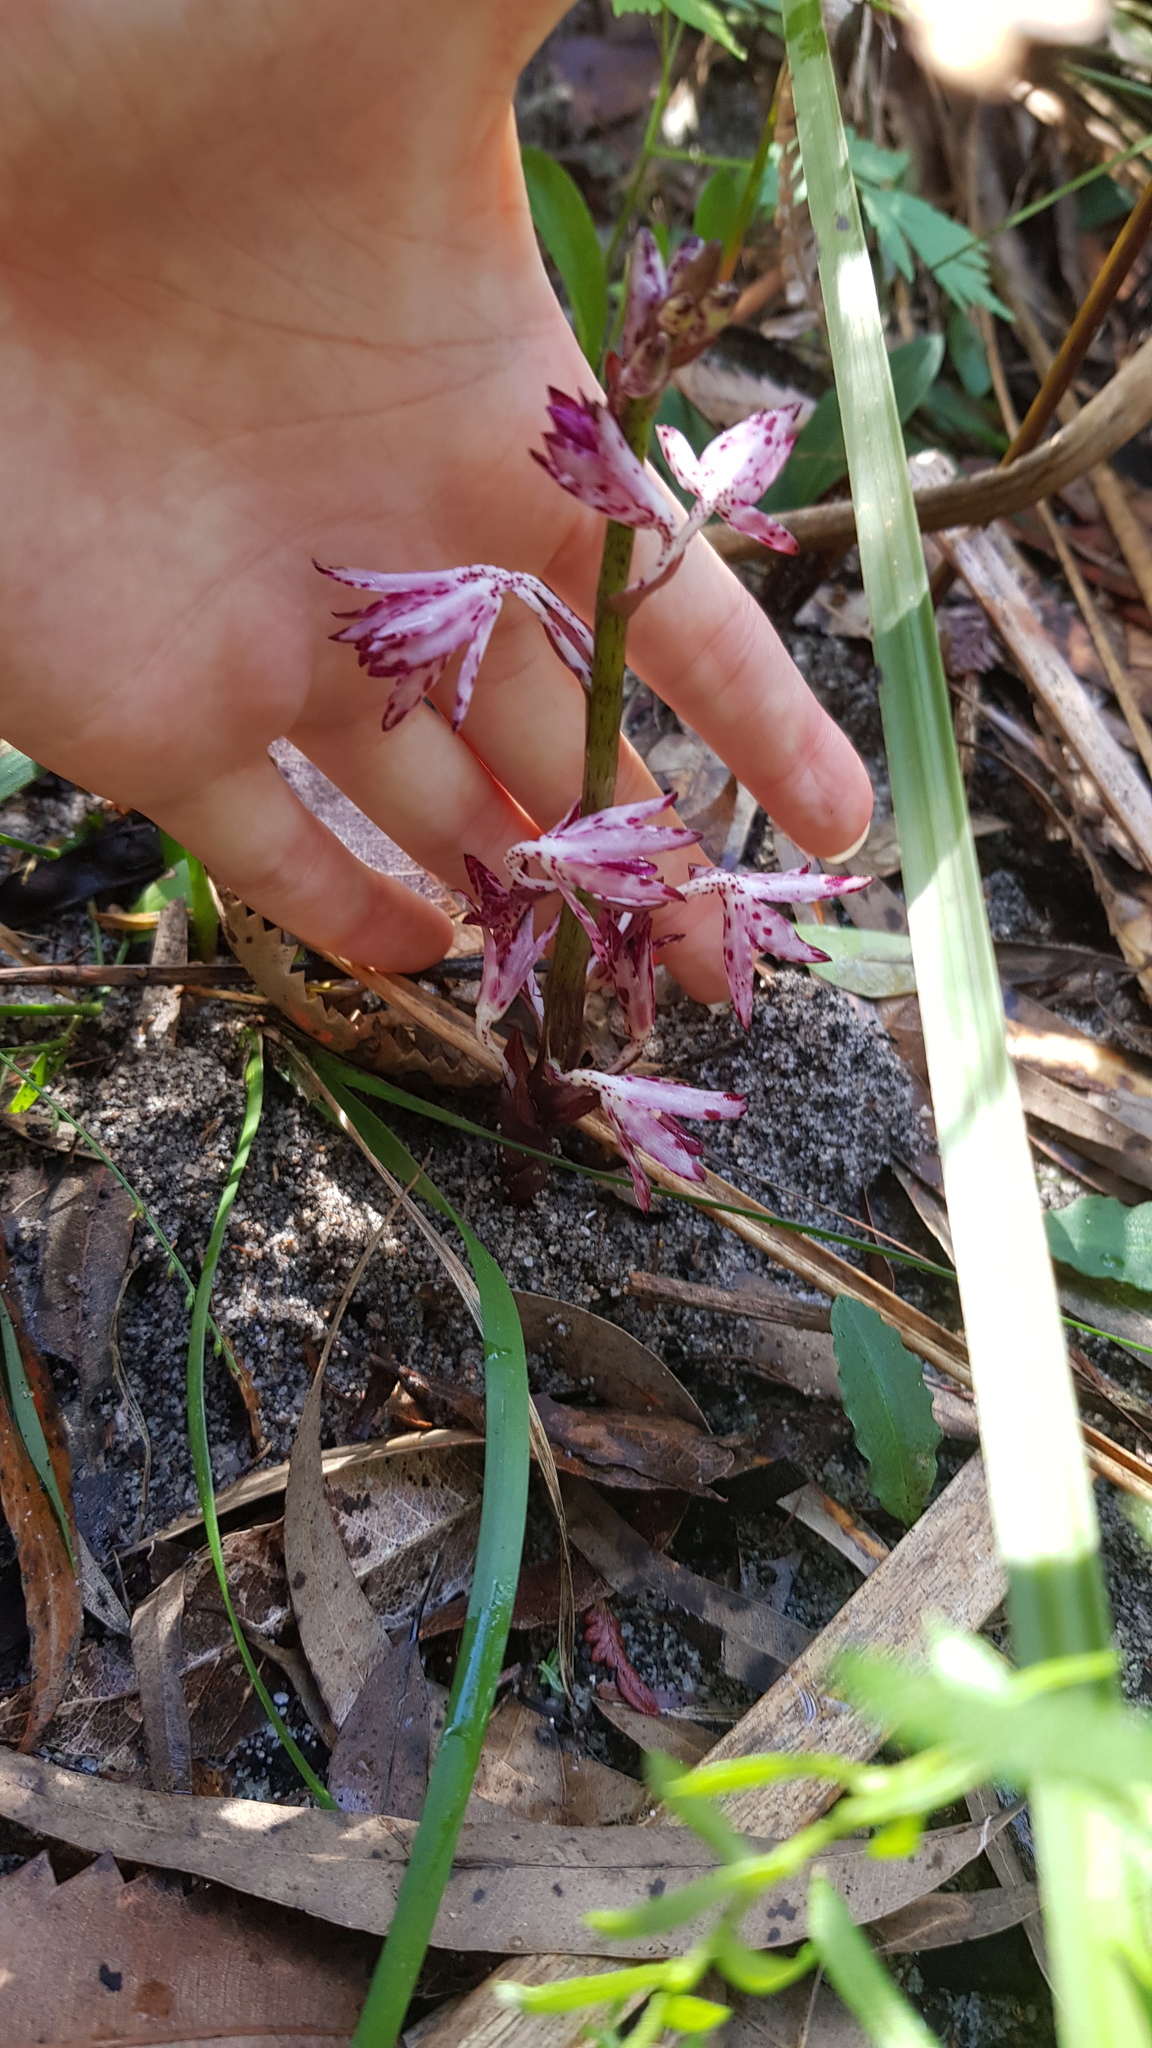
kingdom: Plantae
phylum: Tracheophyta
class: Liliopsida
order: Asparagales
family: Orchidaceae
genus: Dipodium
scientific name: Dipodium variegatum
